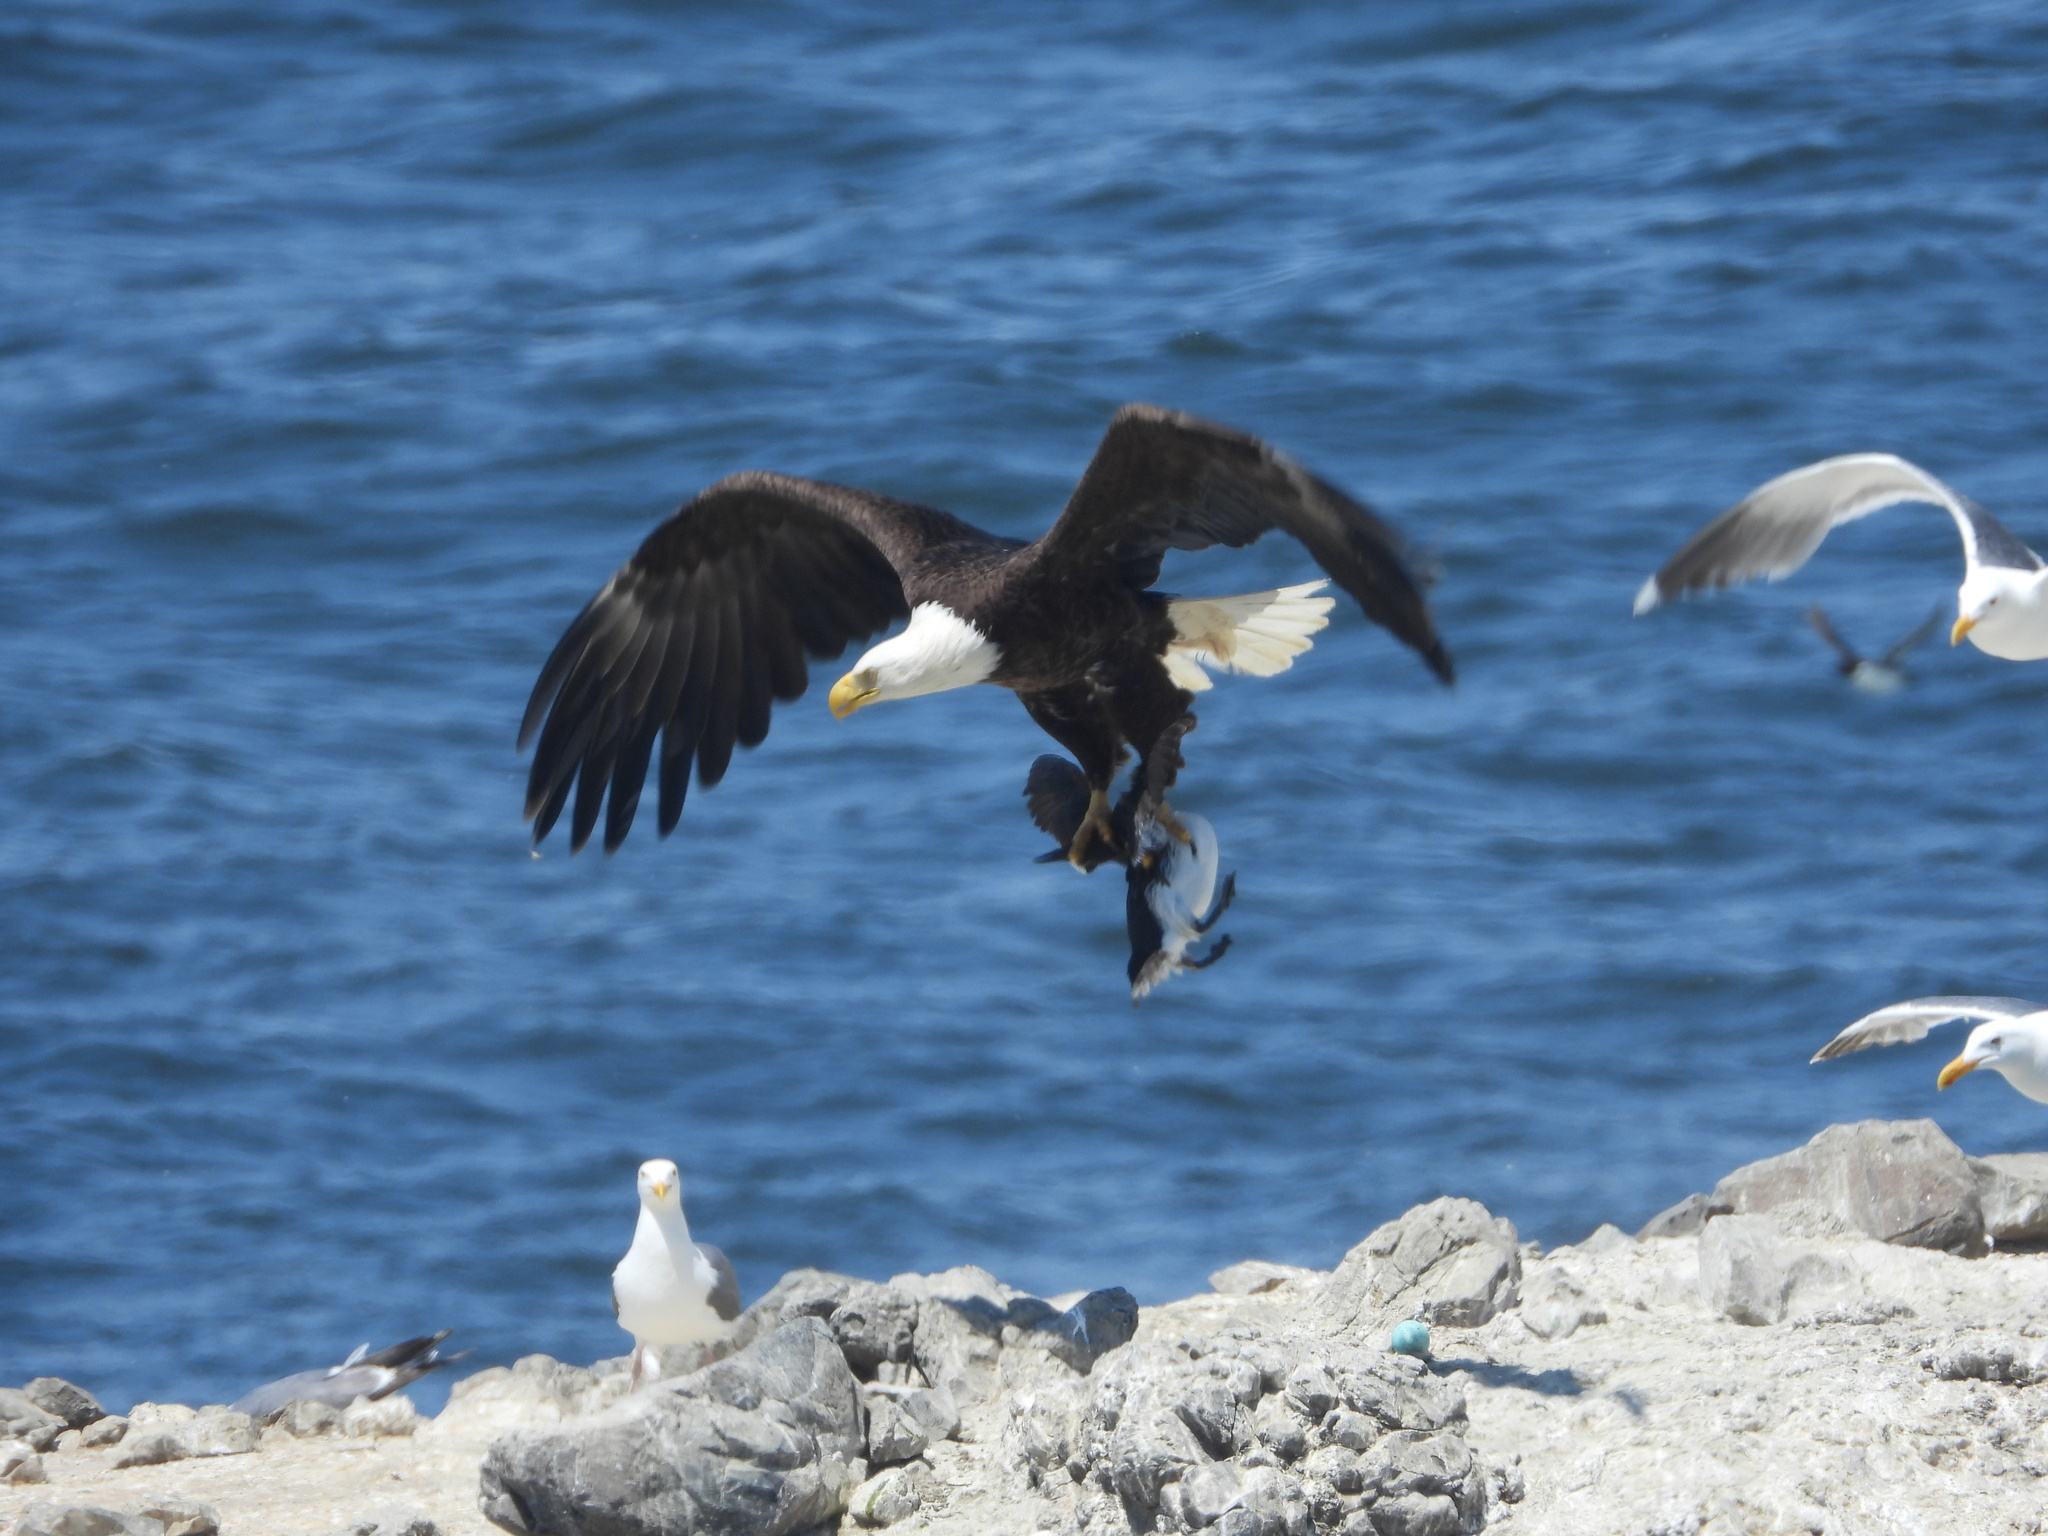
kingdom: Animalia
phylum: Chordata
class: Aves
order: Accipitriformes
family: Accipitridae
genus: Haliaeetus
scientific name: Haliaeetus leucocephalus
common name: Bald eagle
